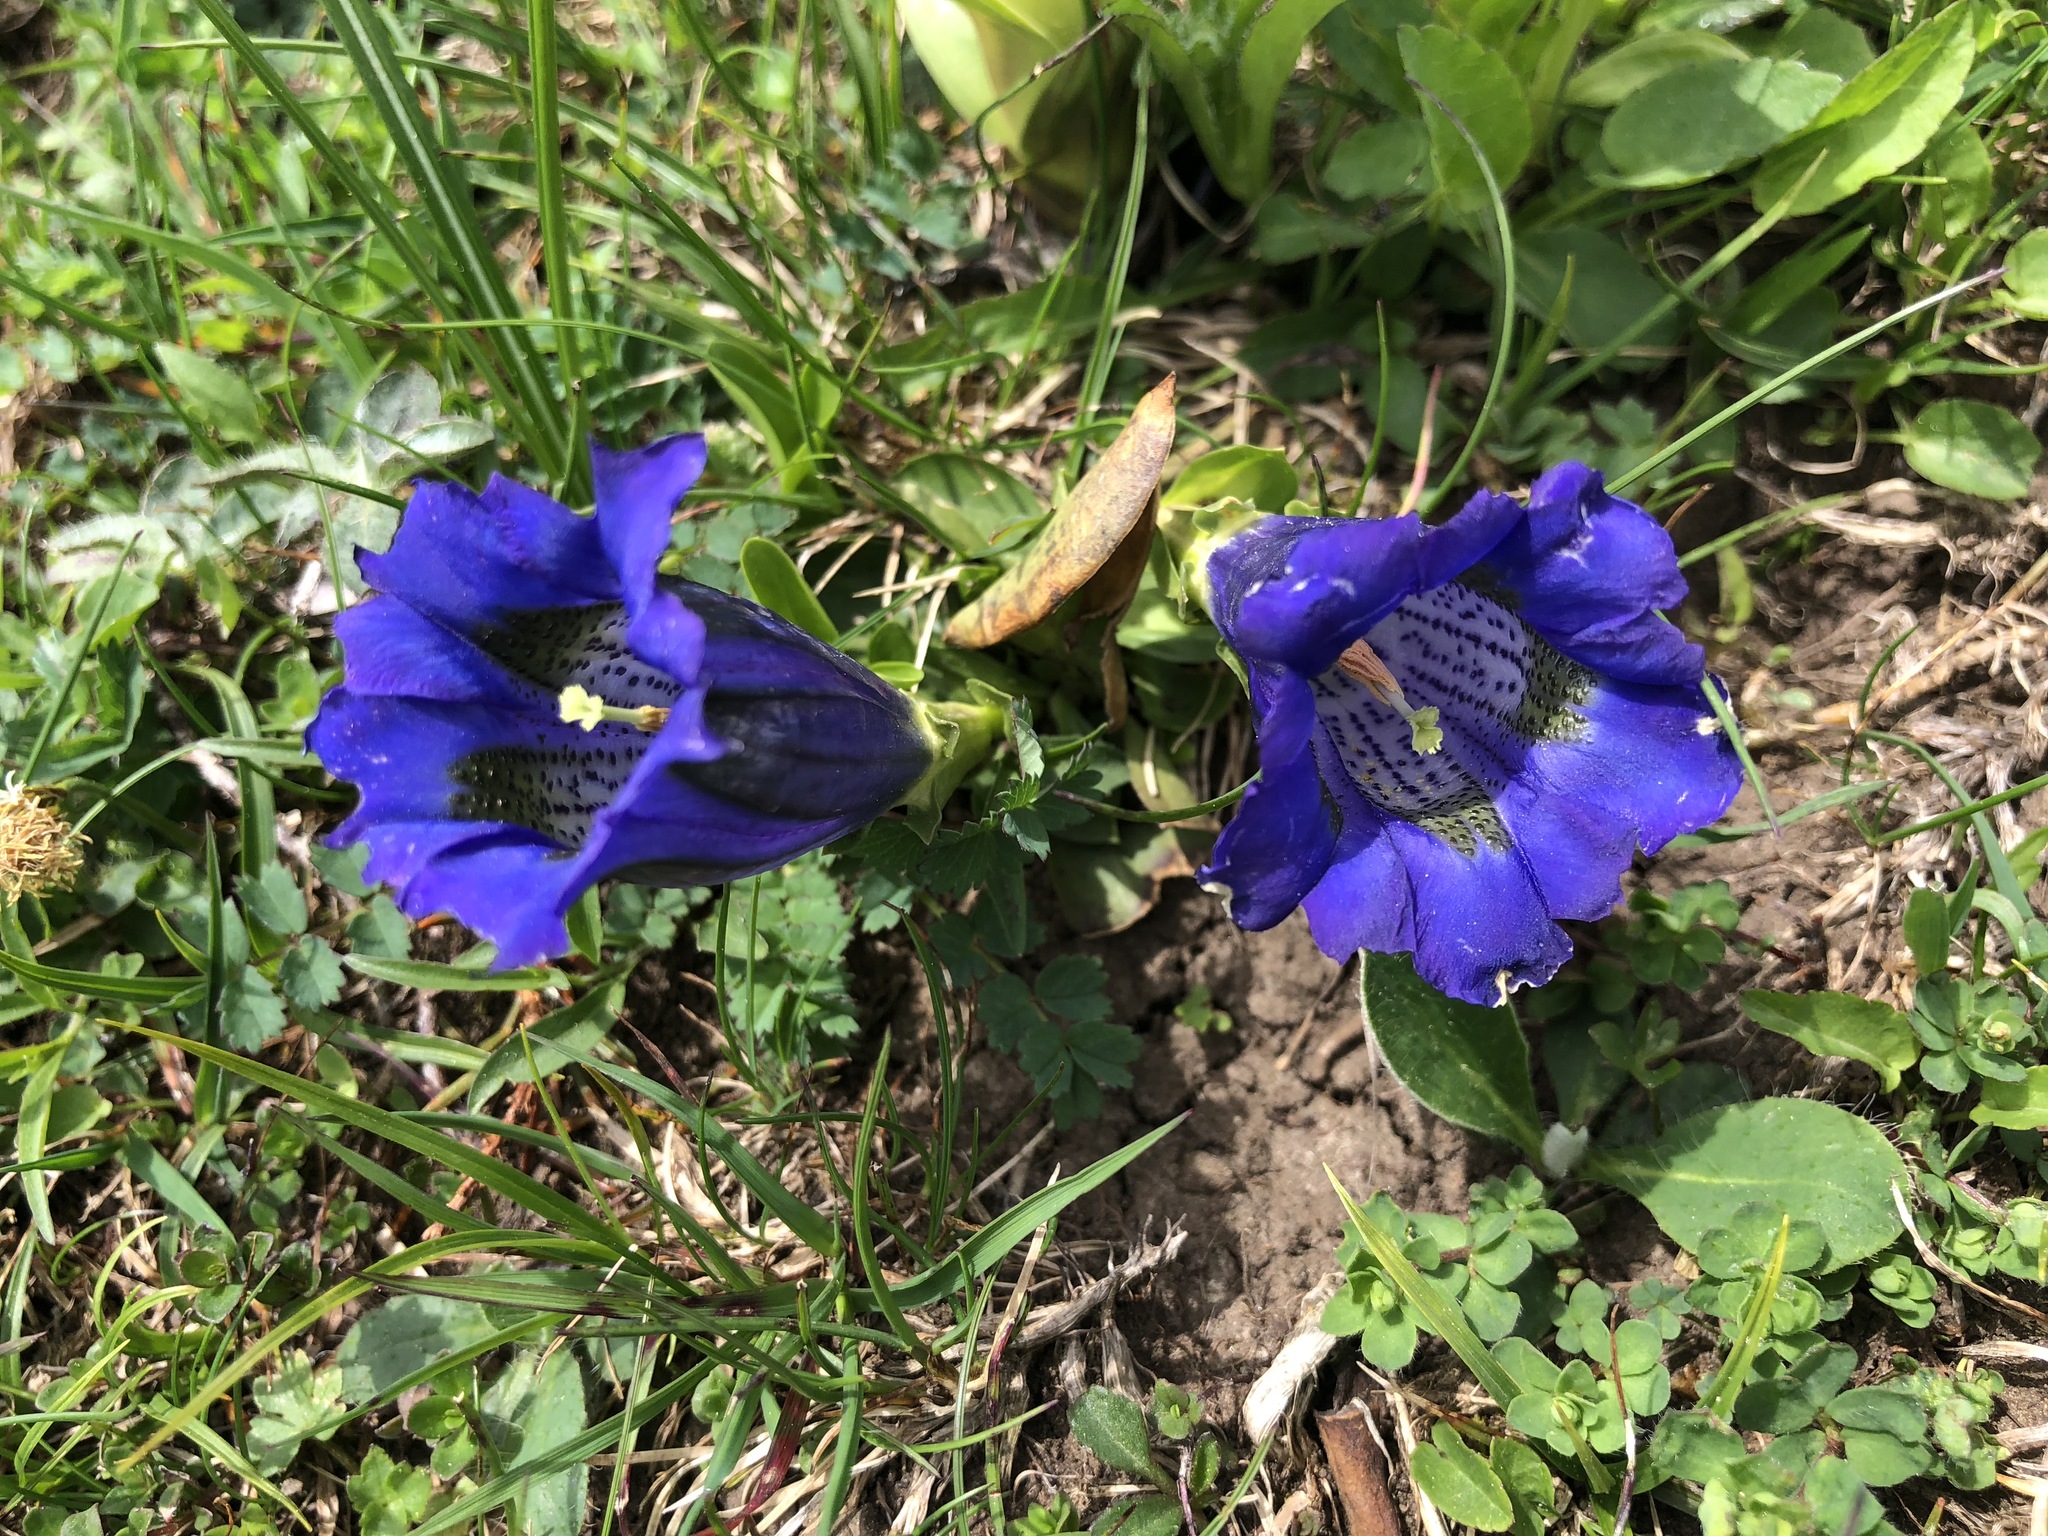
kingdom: Plantae
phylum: Tracheophyta
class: Magnoliopsida
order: Gentianales
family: Gentianaceae
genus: Gentiana
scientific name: Gentiana acaulis
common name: Trumpet gentian
